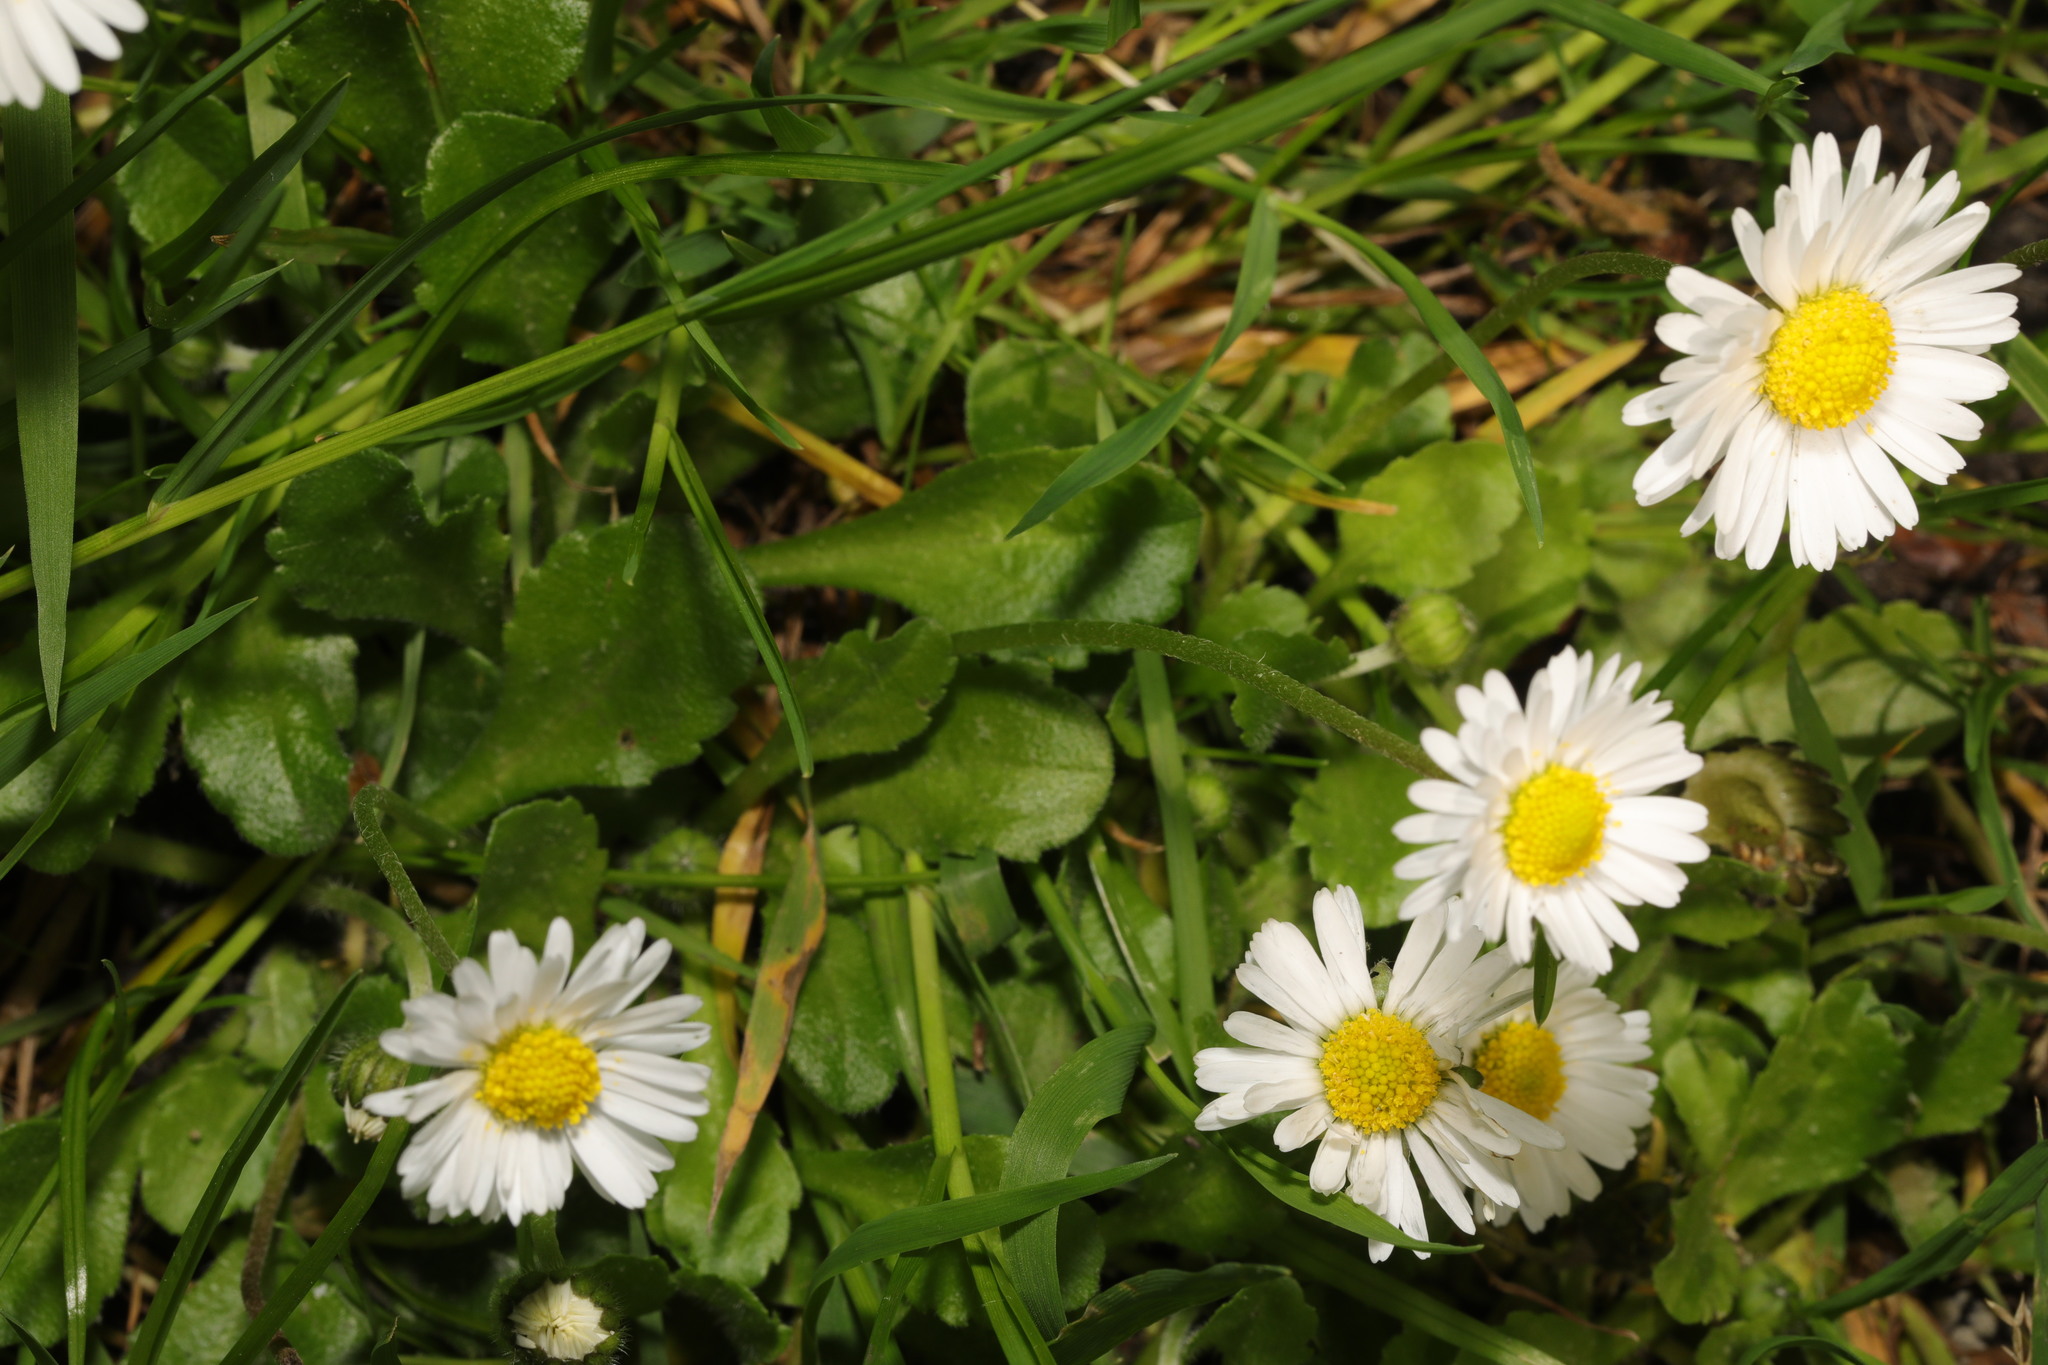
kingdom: Plantae
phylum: Tracheophyta
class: Magnoliopsida
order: Asterales
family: Asteraceae
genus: Bellis
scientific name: Bellis perennis
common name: Lawndaisy
